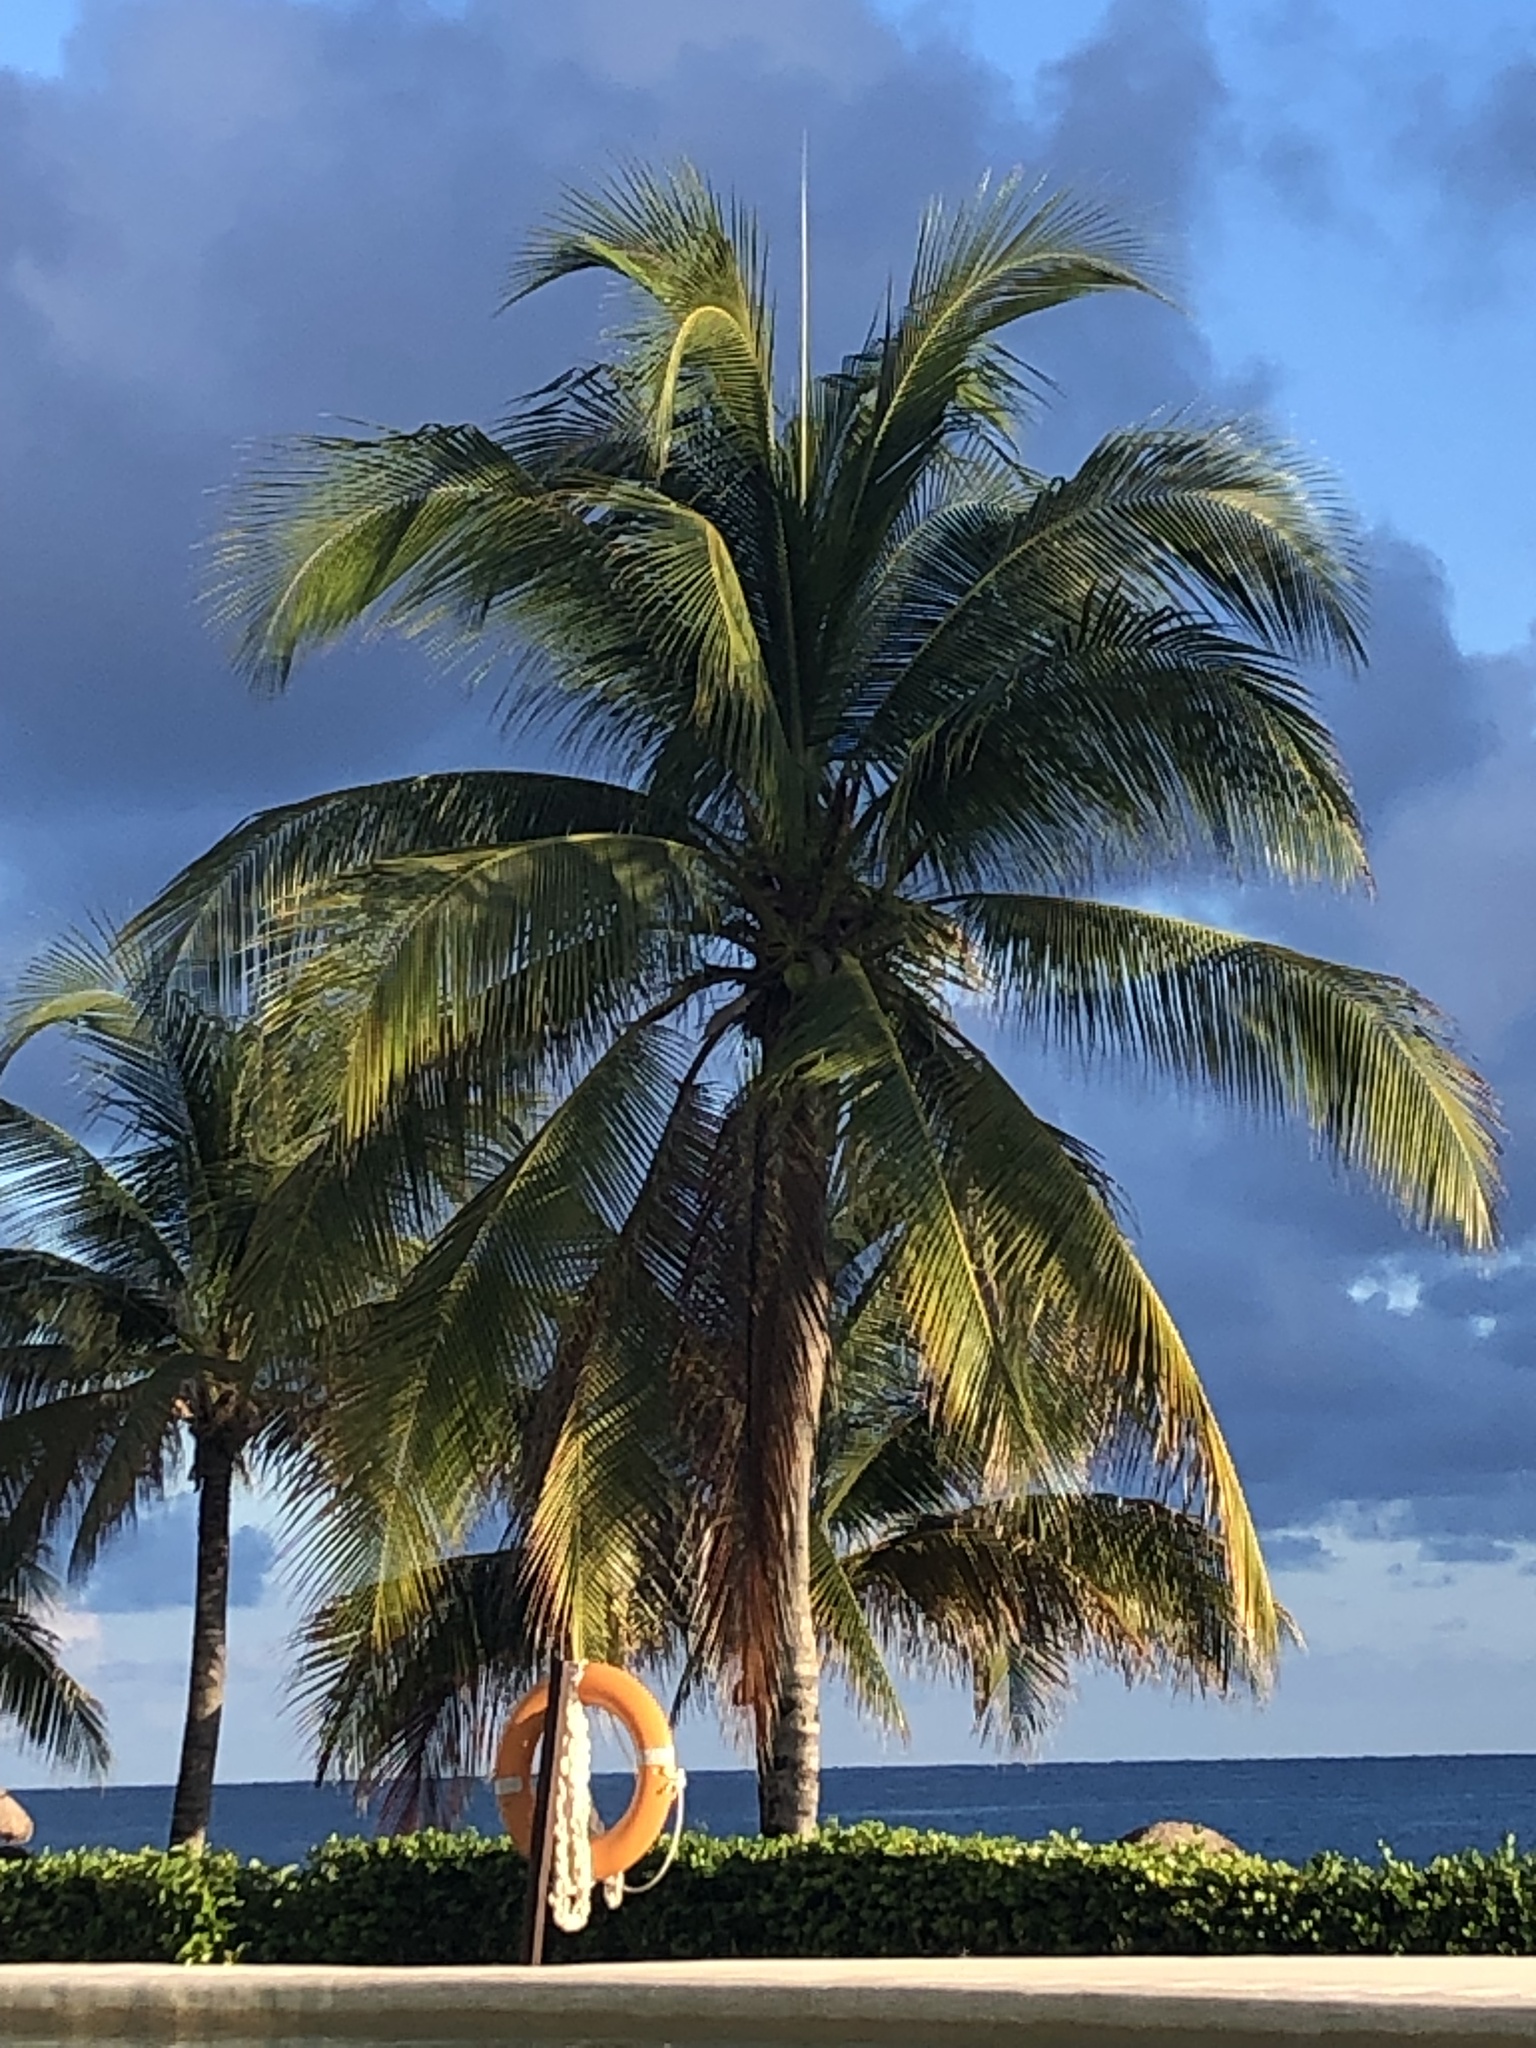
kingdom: Plantae
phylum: Tracheophyta
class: Liliopsida
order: Arecales
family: Arecaceae
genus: Cocos
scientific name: Cocos nucifera
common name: Coconut palm
